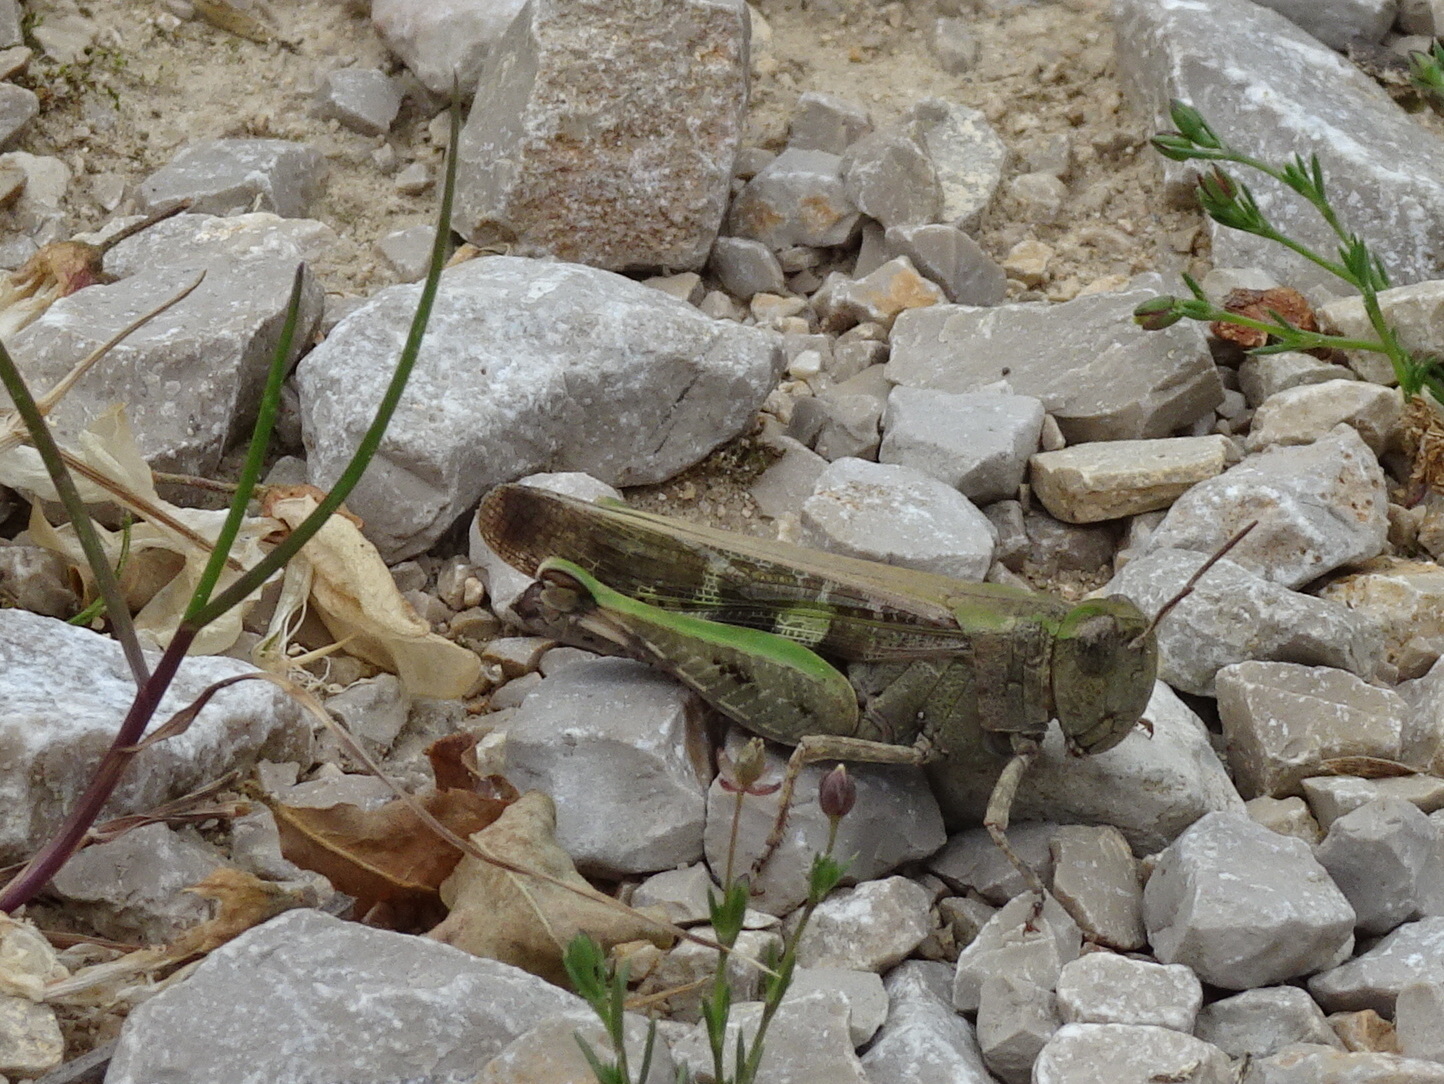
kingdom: Animalia
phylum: Arthropoda
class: Insecta
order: Orthoptera
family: Acrididae
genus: Aiolopus
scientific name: Aiolopus strepens
